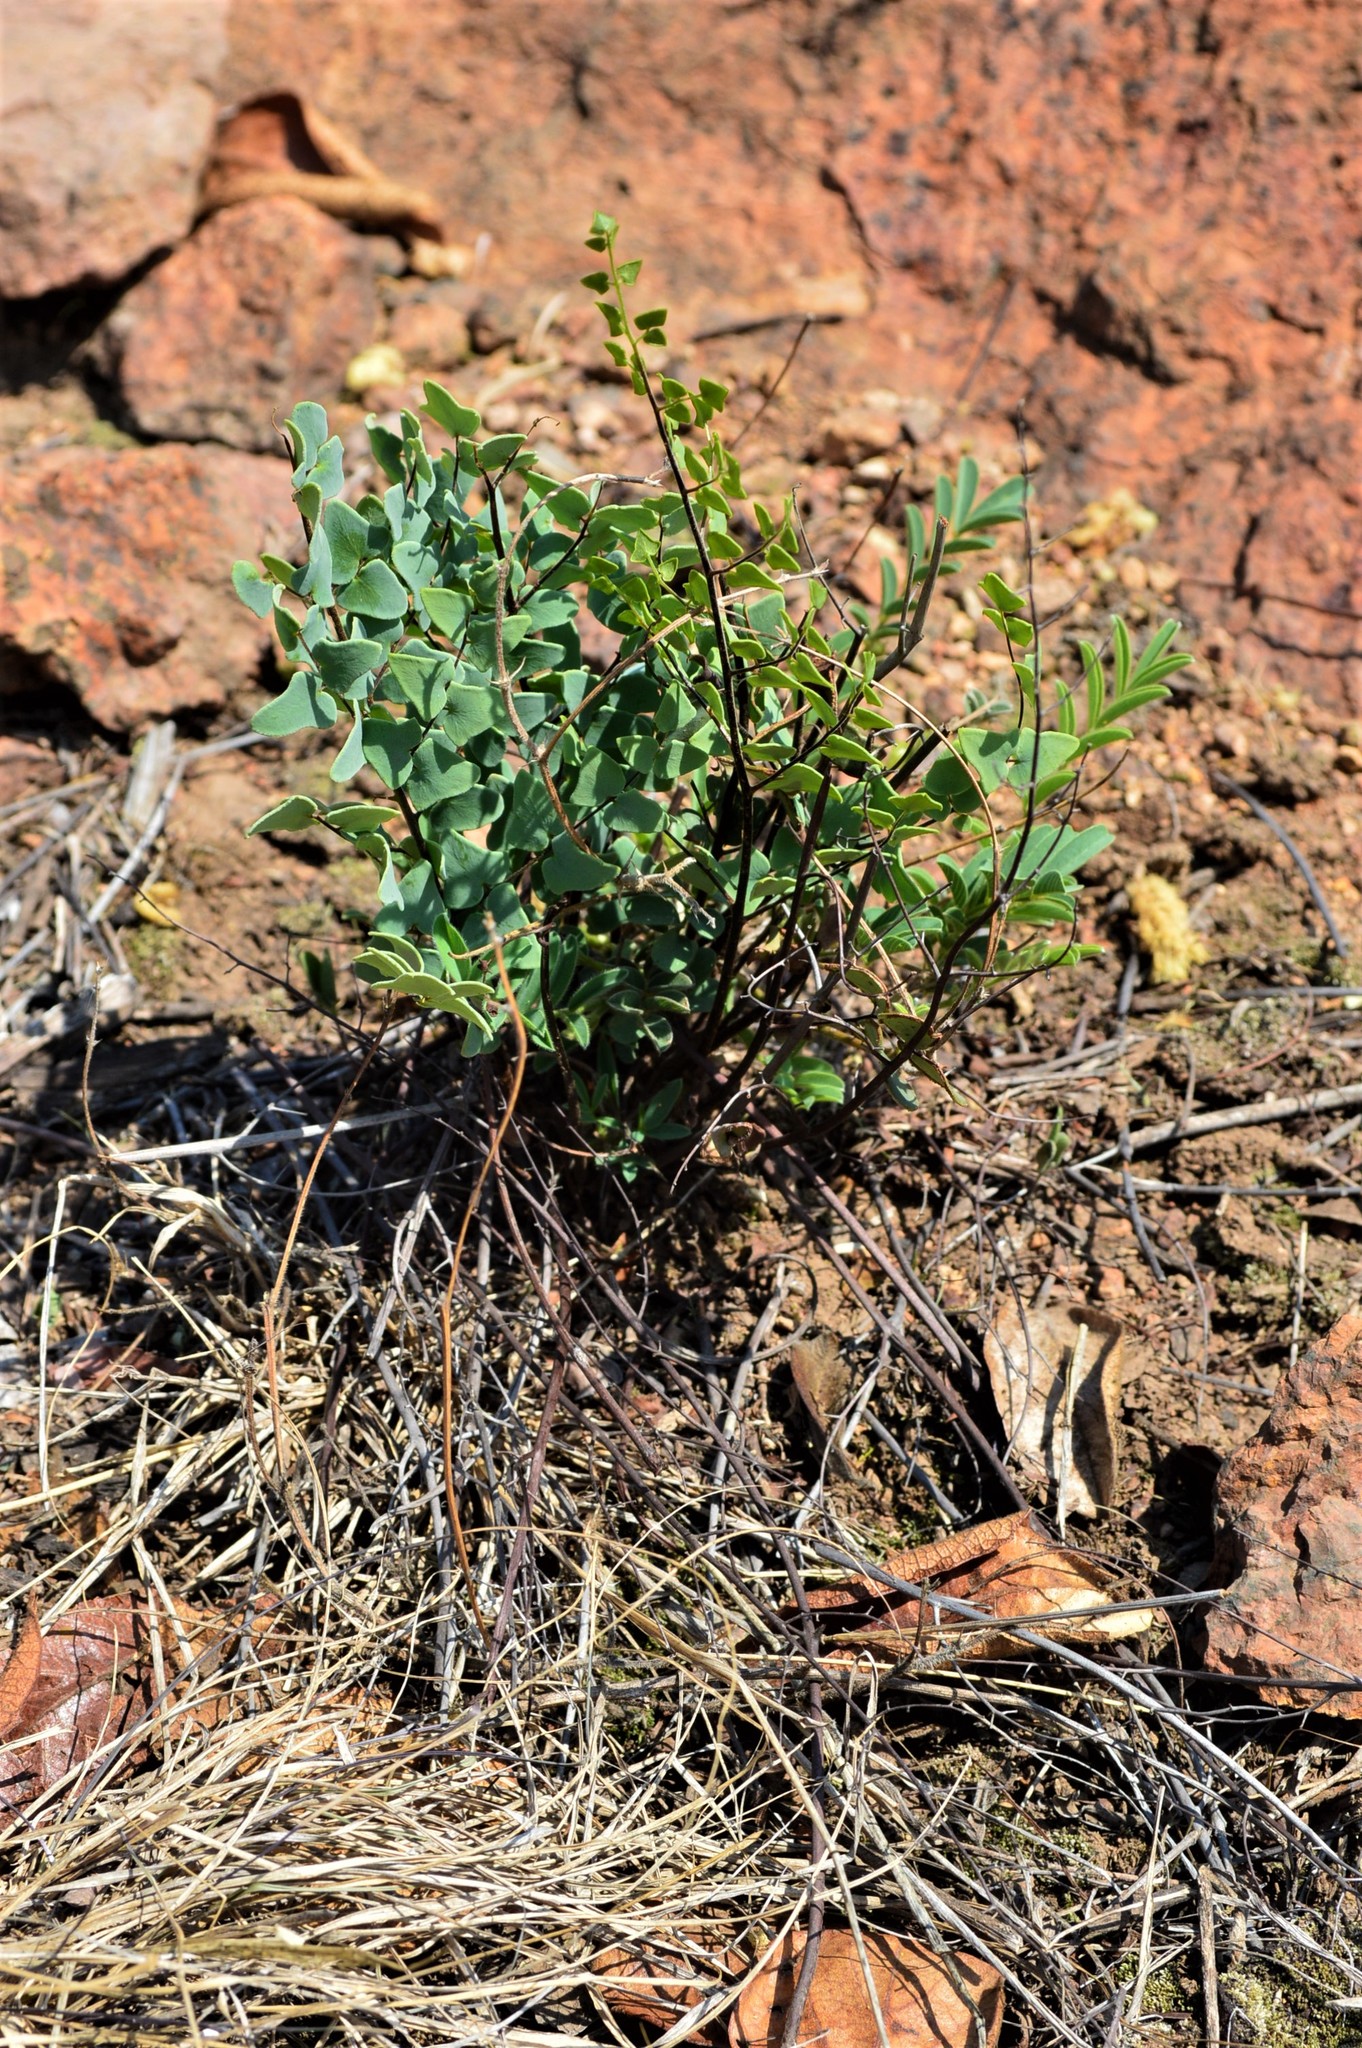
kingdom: Plantae
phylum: Tracheophyta
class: Polypodiopsida
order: Polypodiales
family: Pteridaceae
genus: Pellaea
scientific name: Pellaea calomelanos
